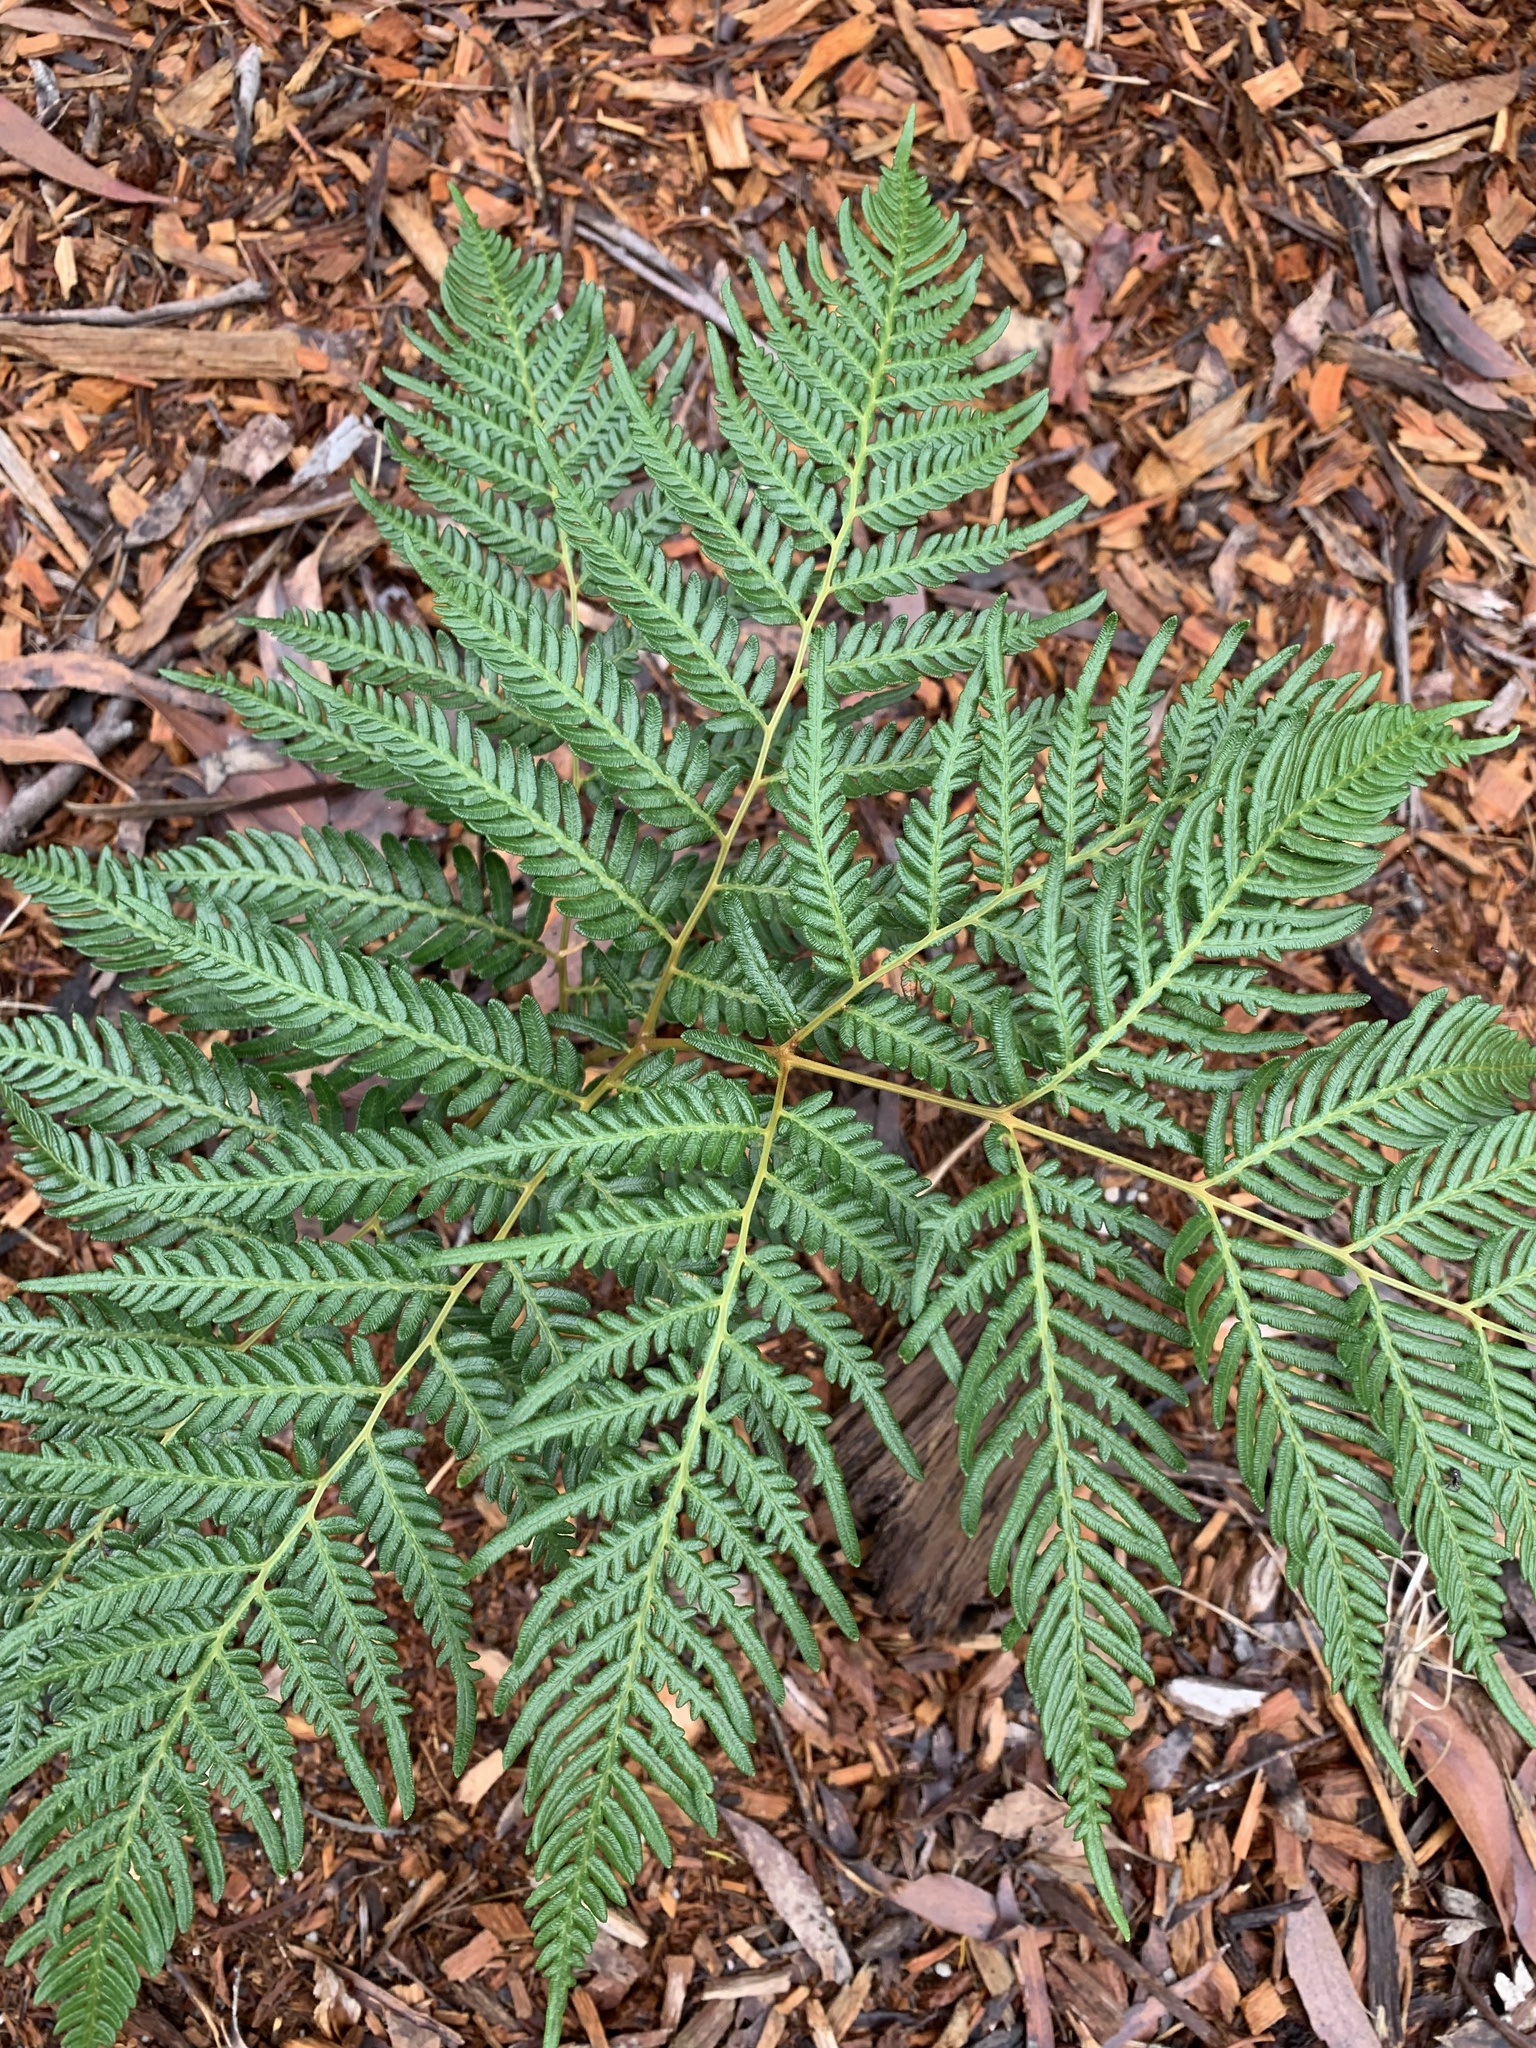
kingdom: Plantae
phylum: Tracheophyta
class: Polypodiopsida
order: Polypodiales
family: Dennstaedtiaceae
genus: Pteridium
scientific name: Pteridium esculentum
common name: Bracken fern
